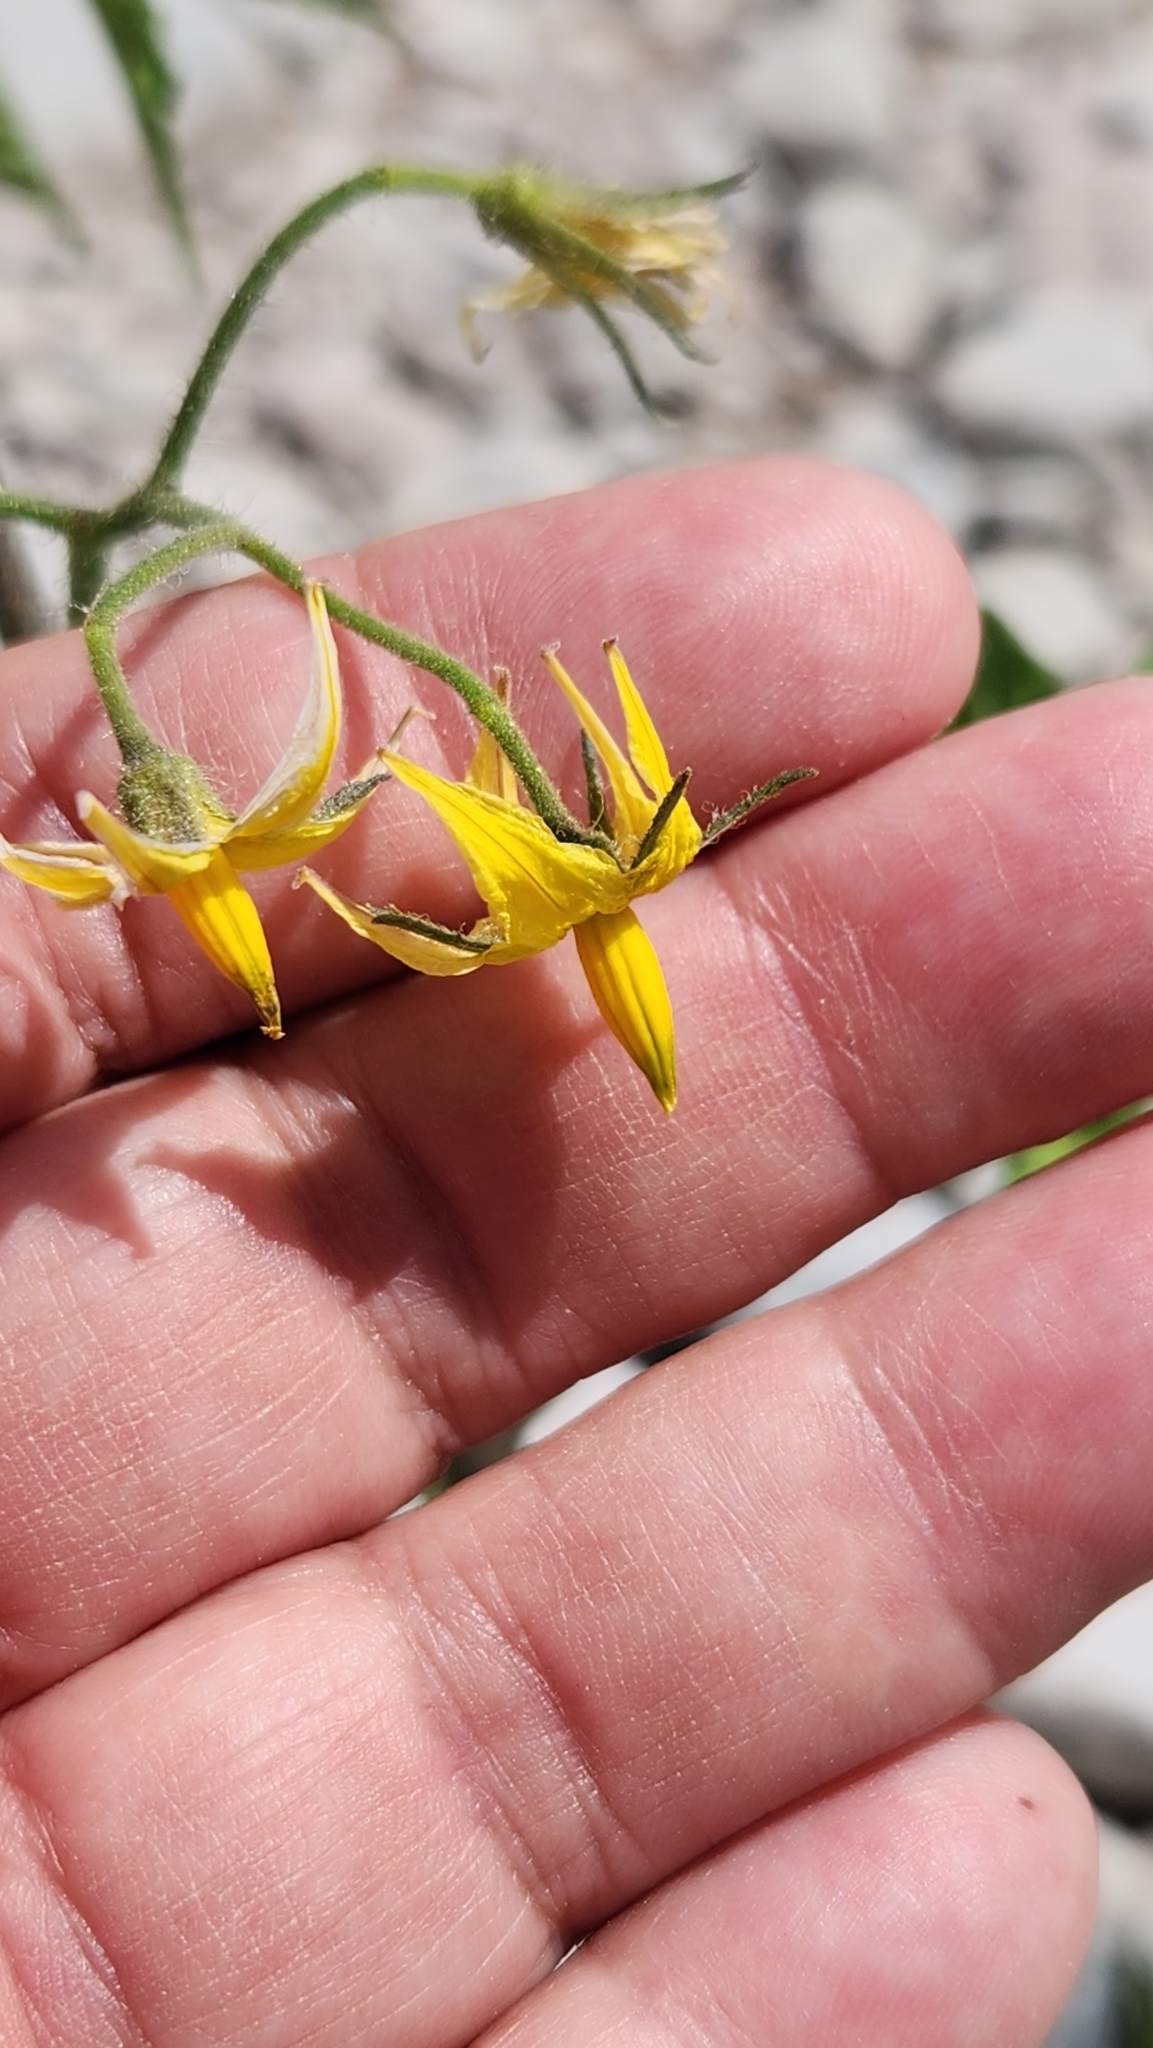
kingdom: Plantae
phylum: Tracheophyta
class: Magnoliopsida
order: Solanales
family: Solanaceae
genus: Solanum
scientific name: Solanum lycopersicum
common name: Garden tomato
